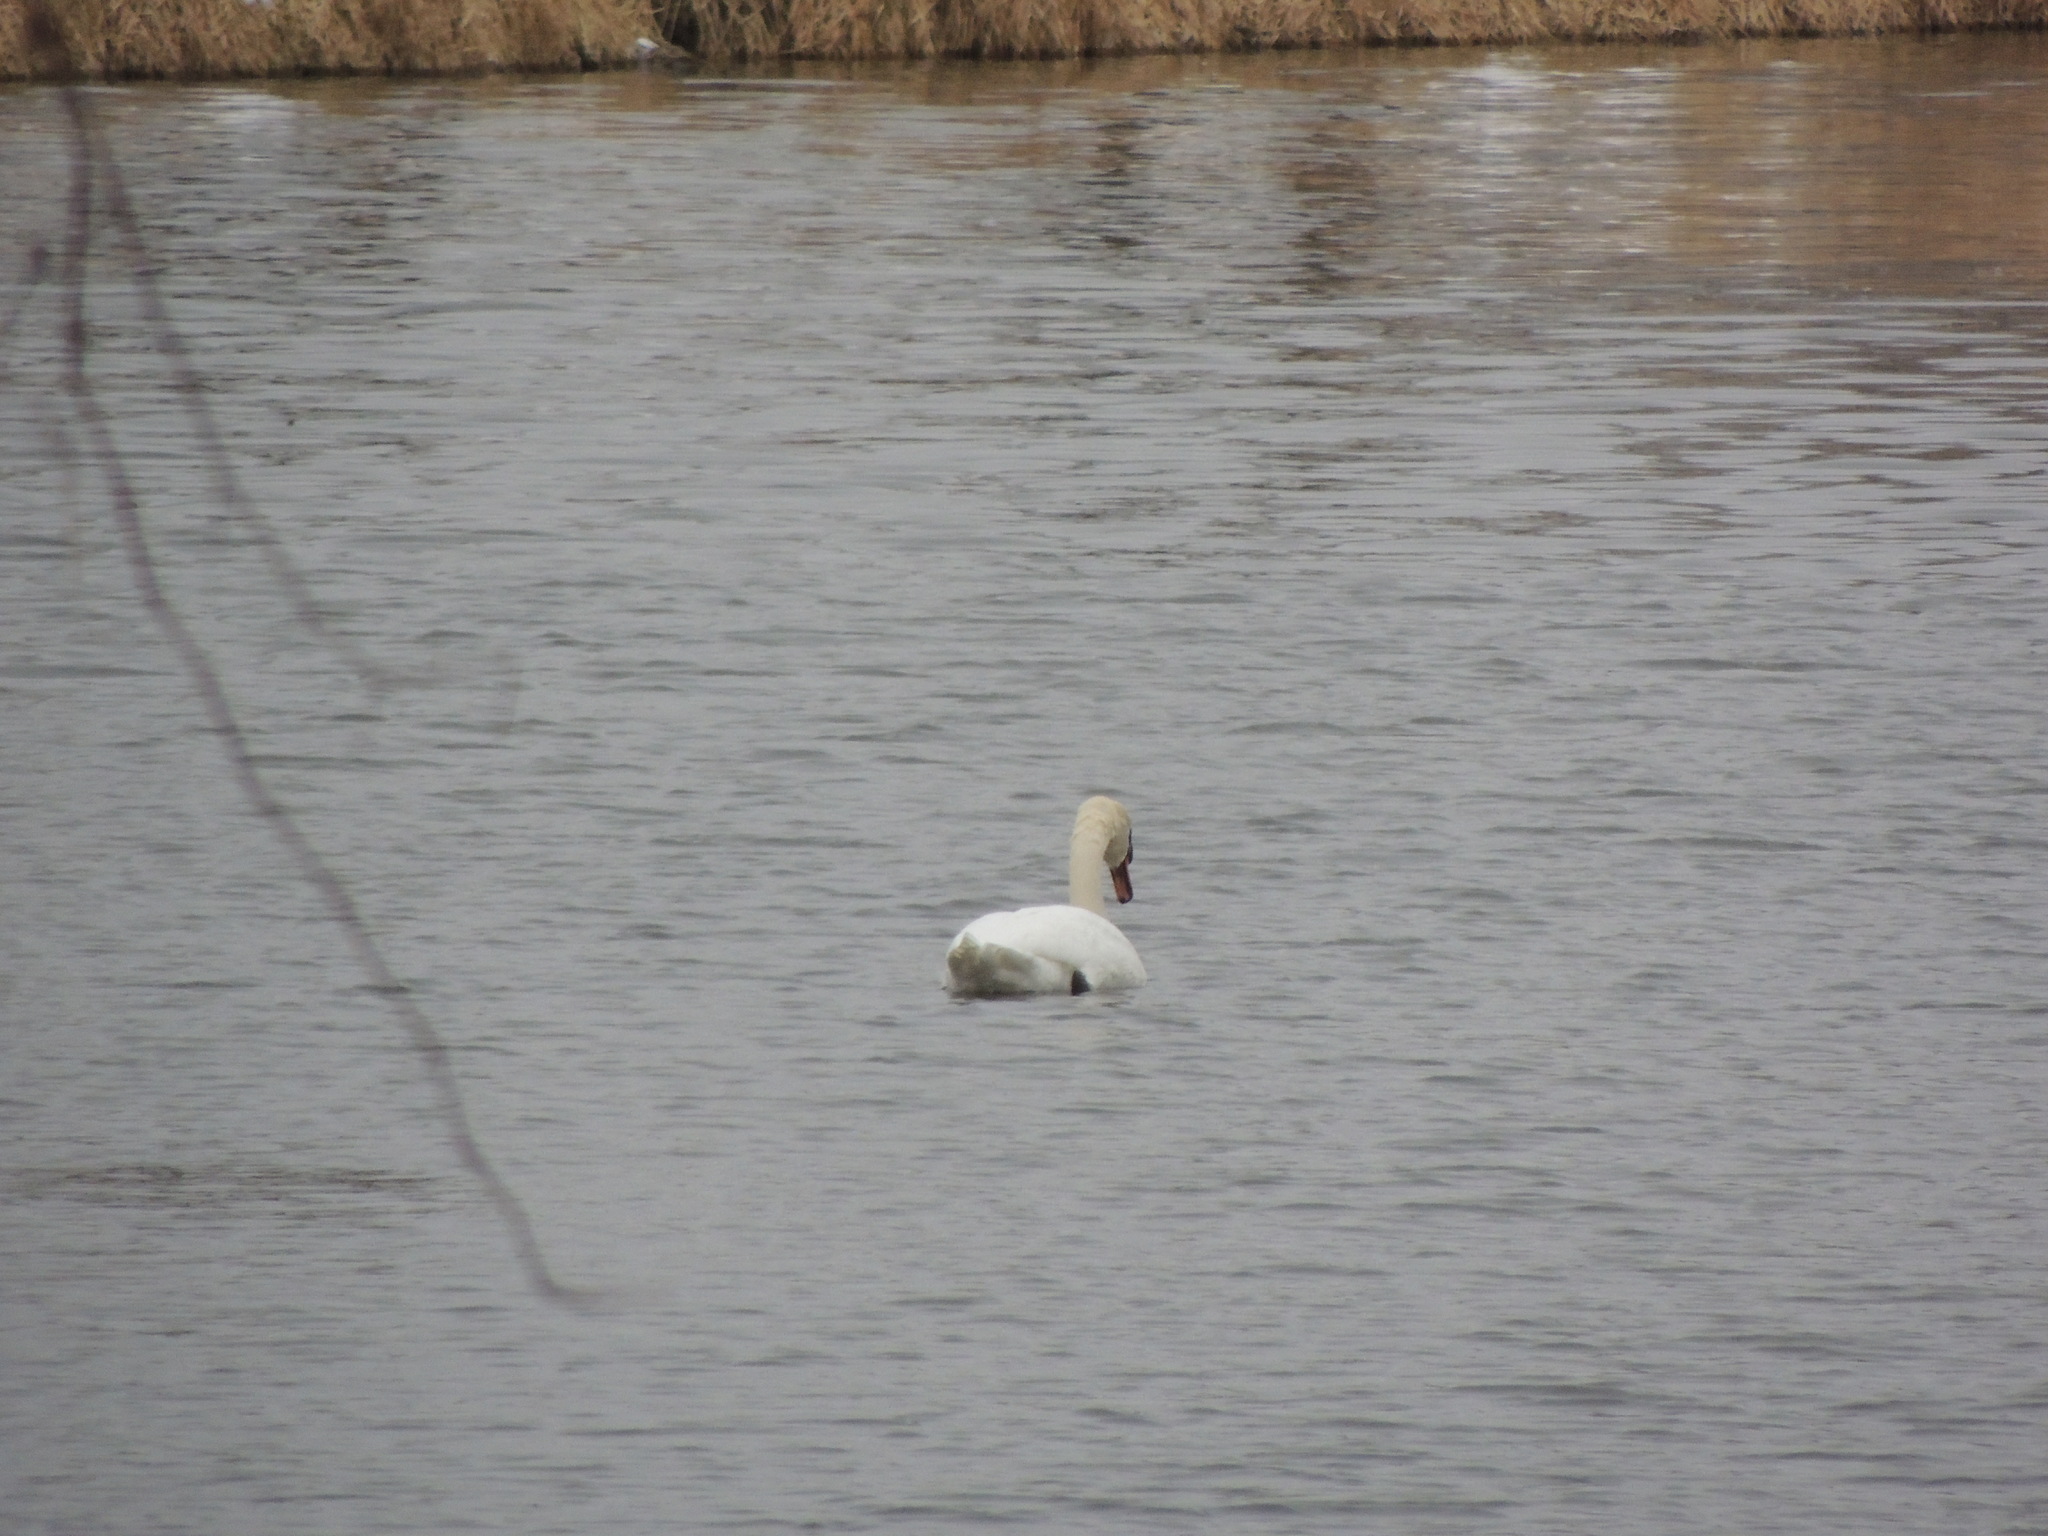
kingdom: Animalia
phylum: Chordata
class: Aves
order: Anseriformes
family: Anatidae
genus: Cygnus
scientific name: Cygnus olor
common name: Mute swan
